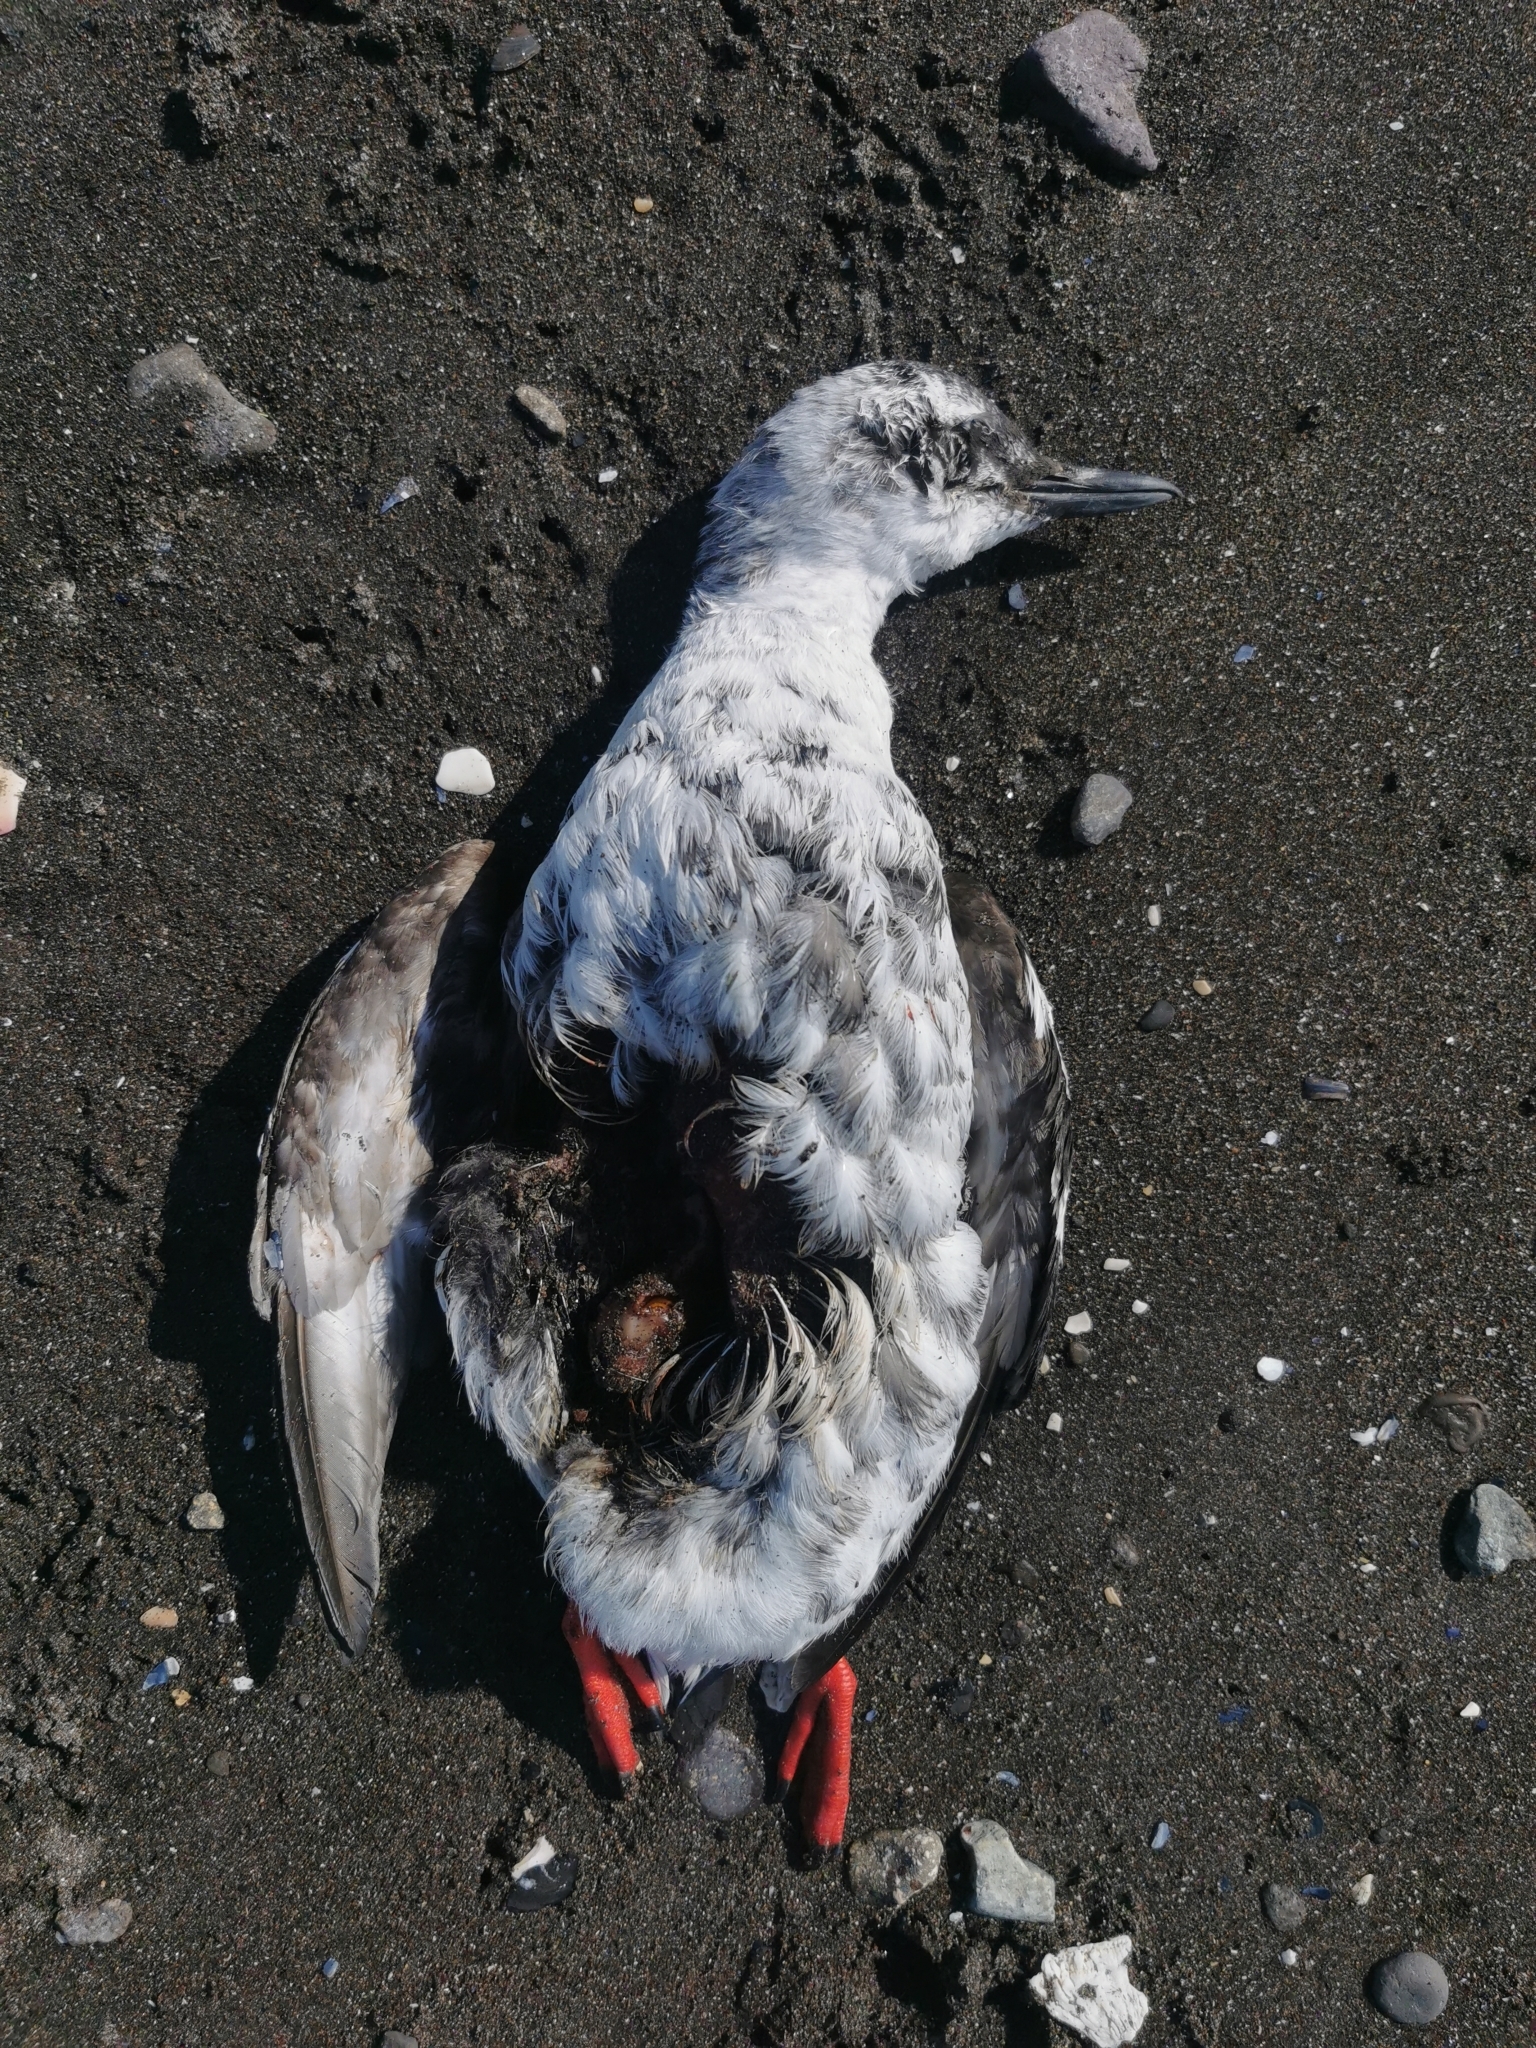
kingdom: Animalia
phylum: Chordata
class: Aves
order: Charadriiformes
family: Alcidae
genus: Cepphus
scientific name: Cepphus columba
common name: Pigeon guillemot
